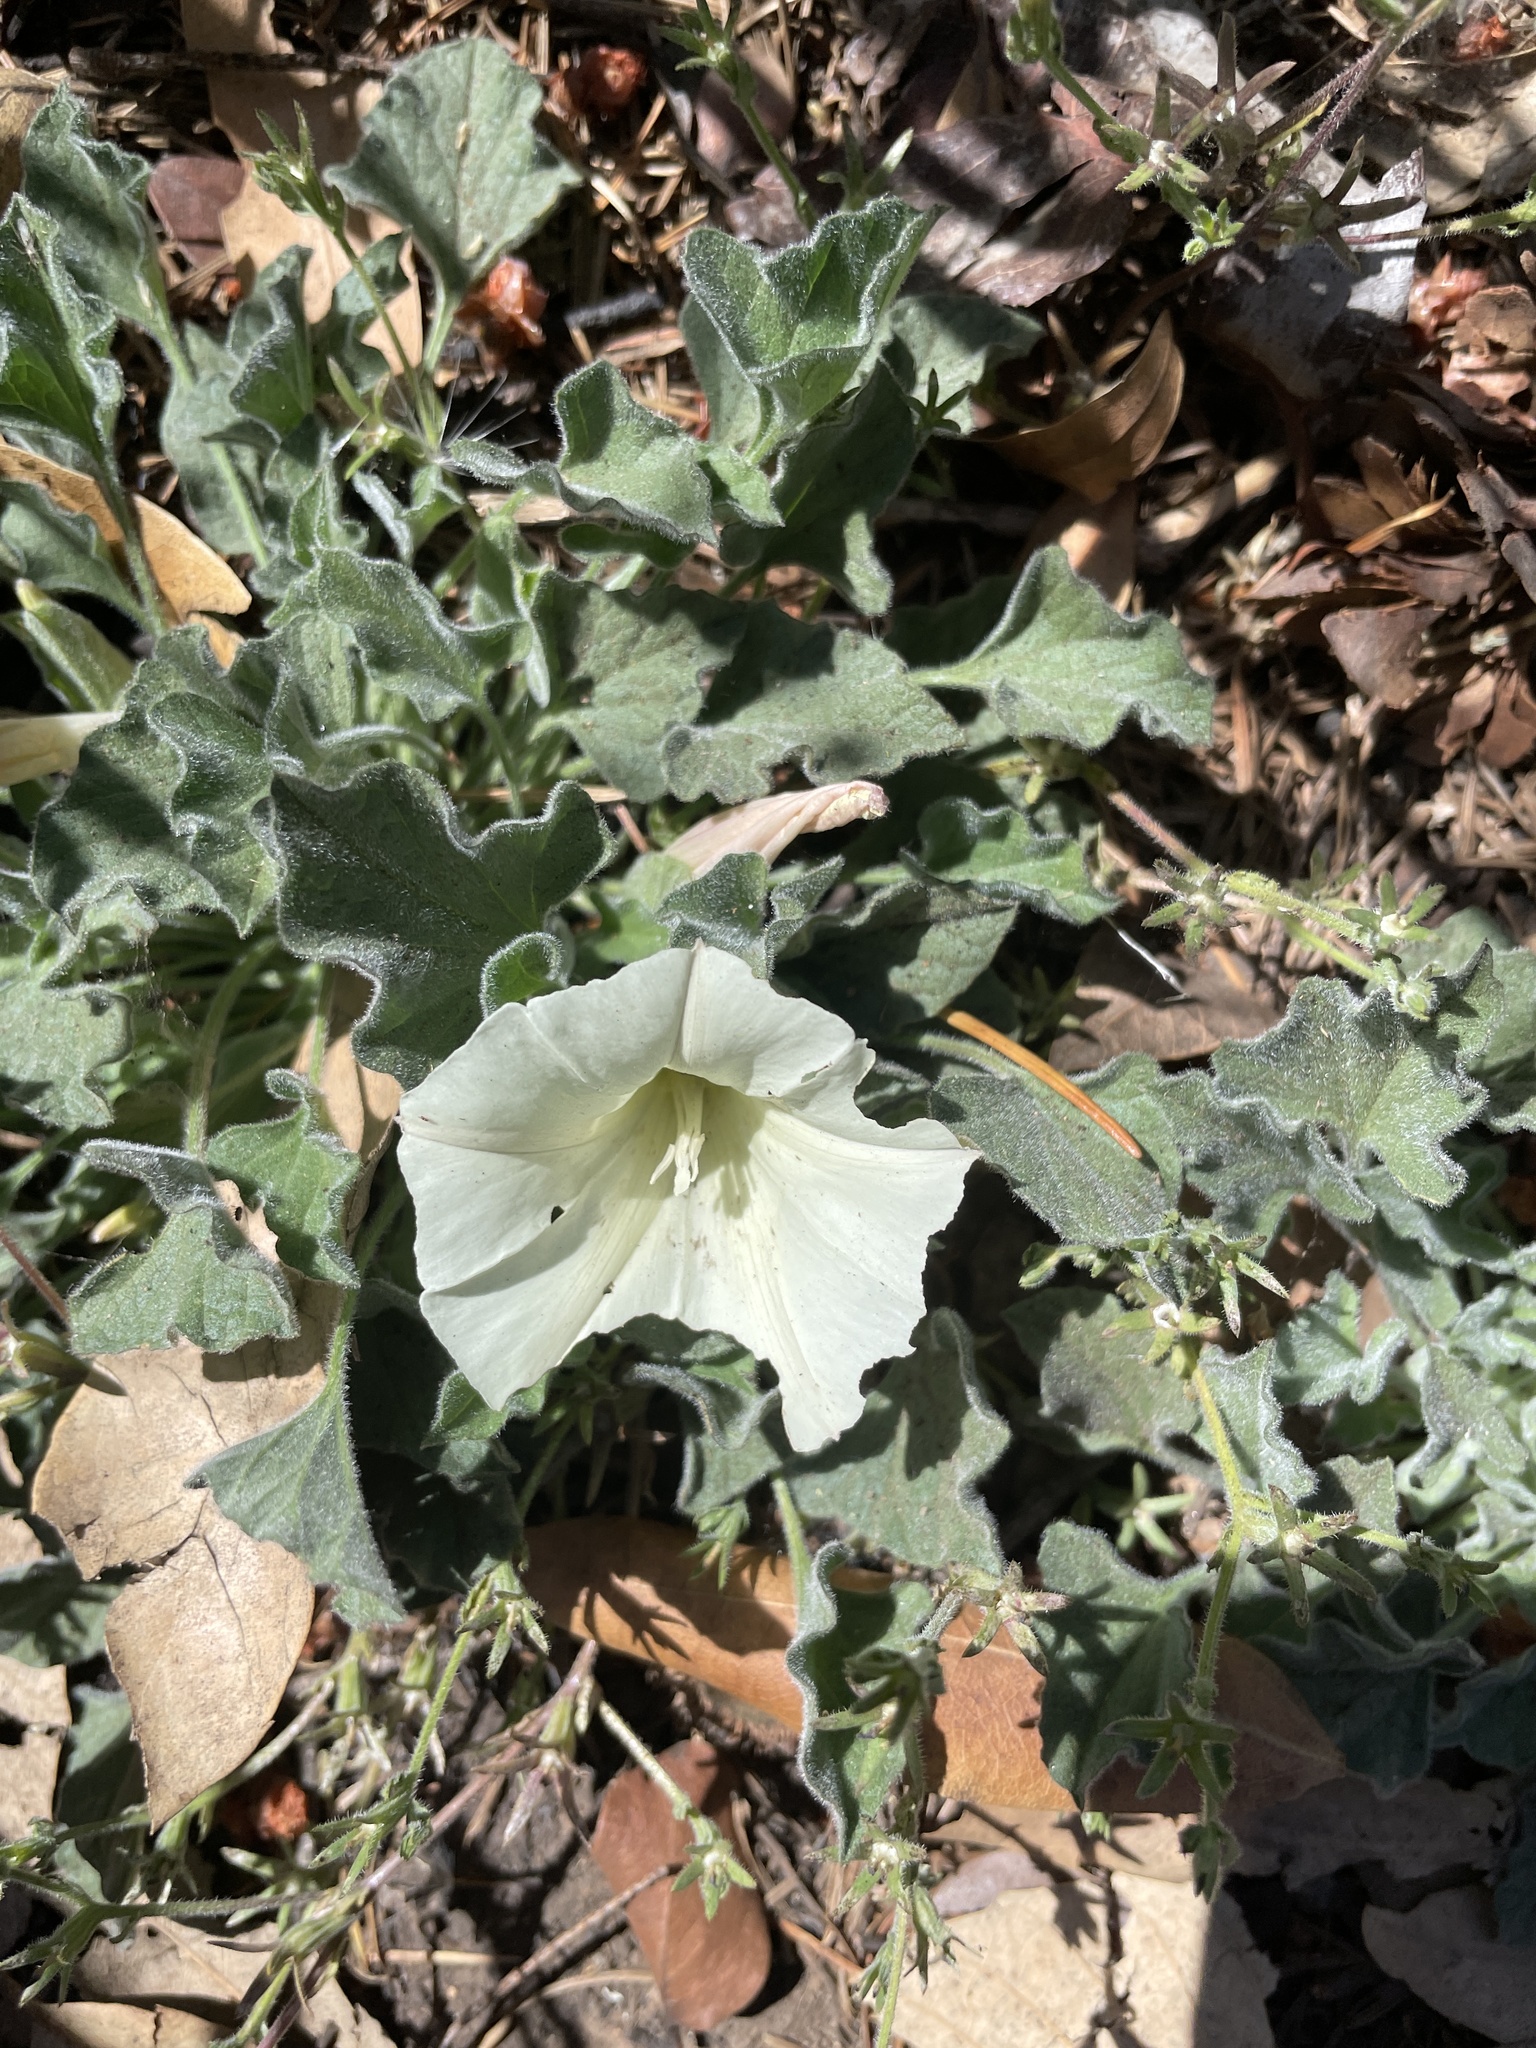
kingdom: Plantae
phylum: Tracheophyta
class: Magnoliopsida
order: Solanales
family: Convolvulaceae
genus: Calystegia
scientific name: Calystegia collina
